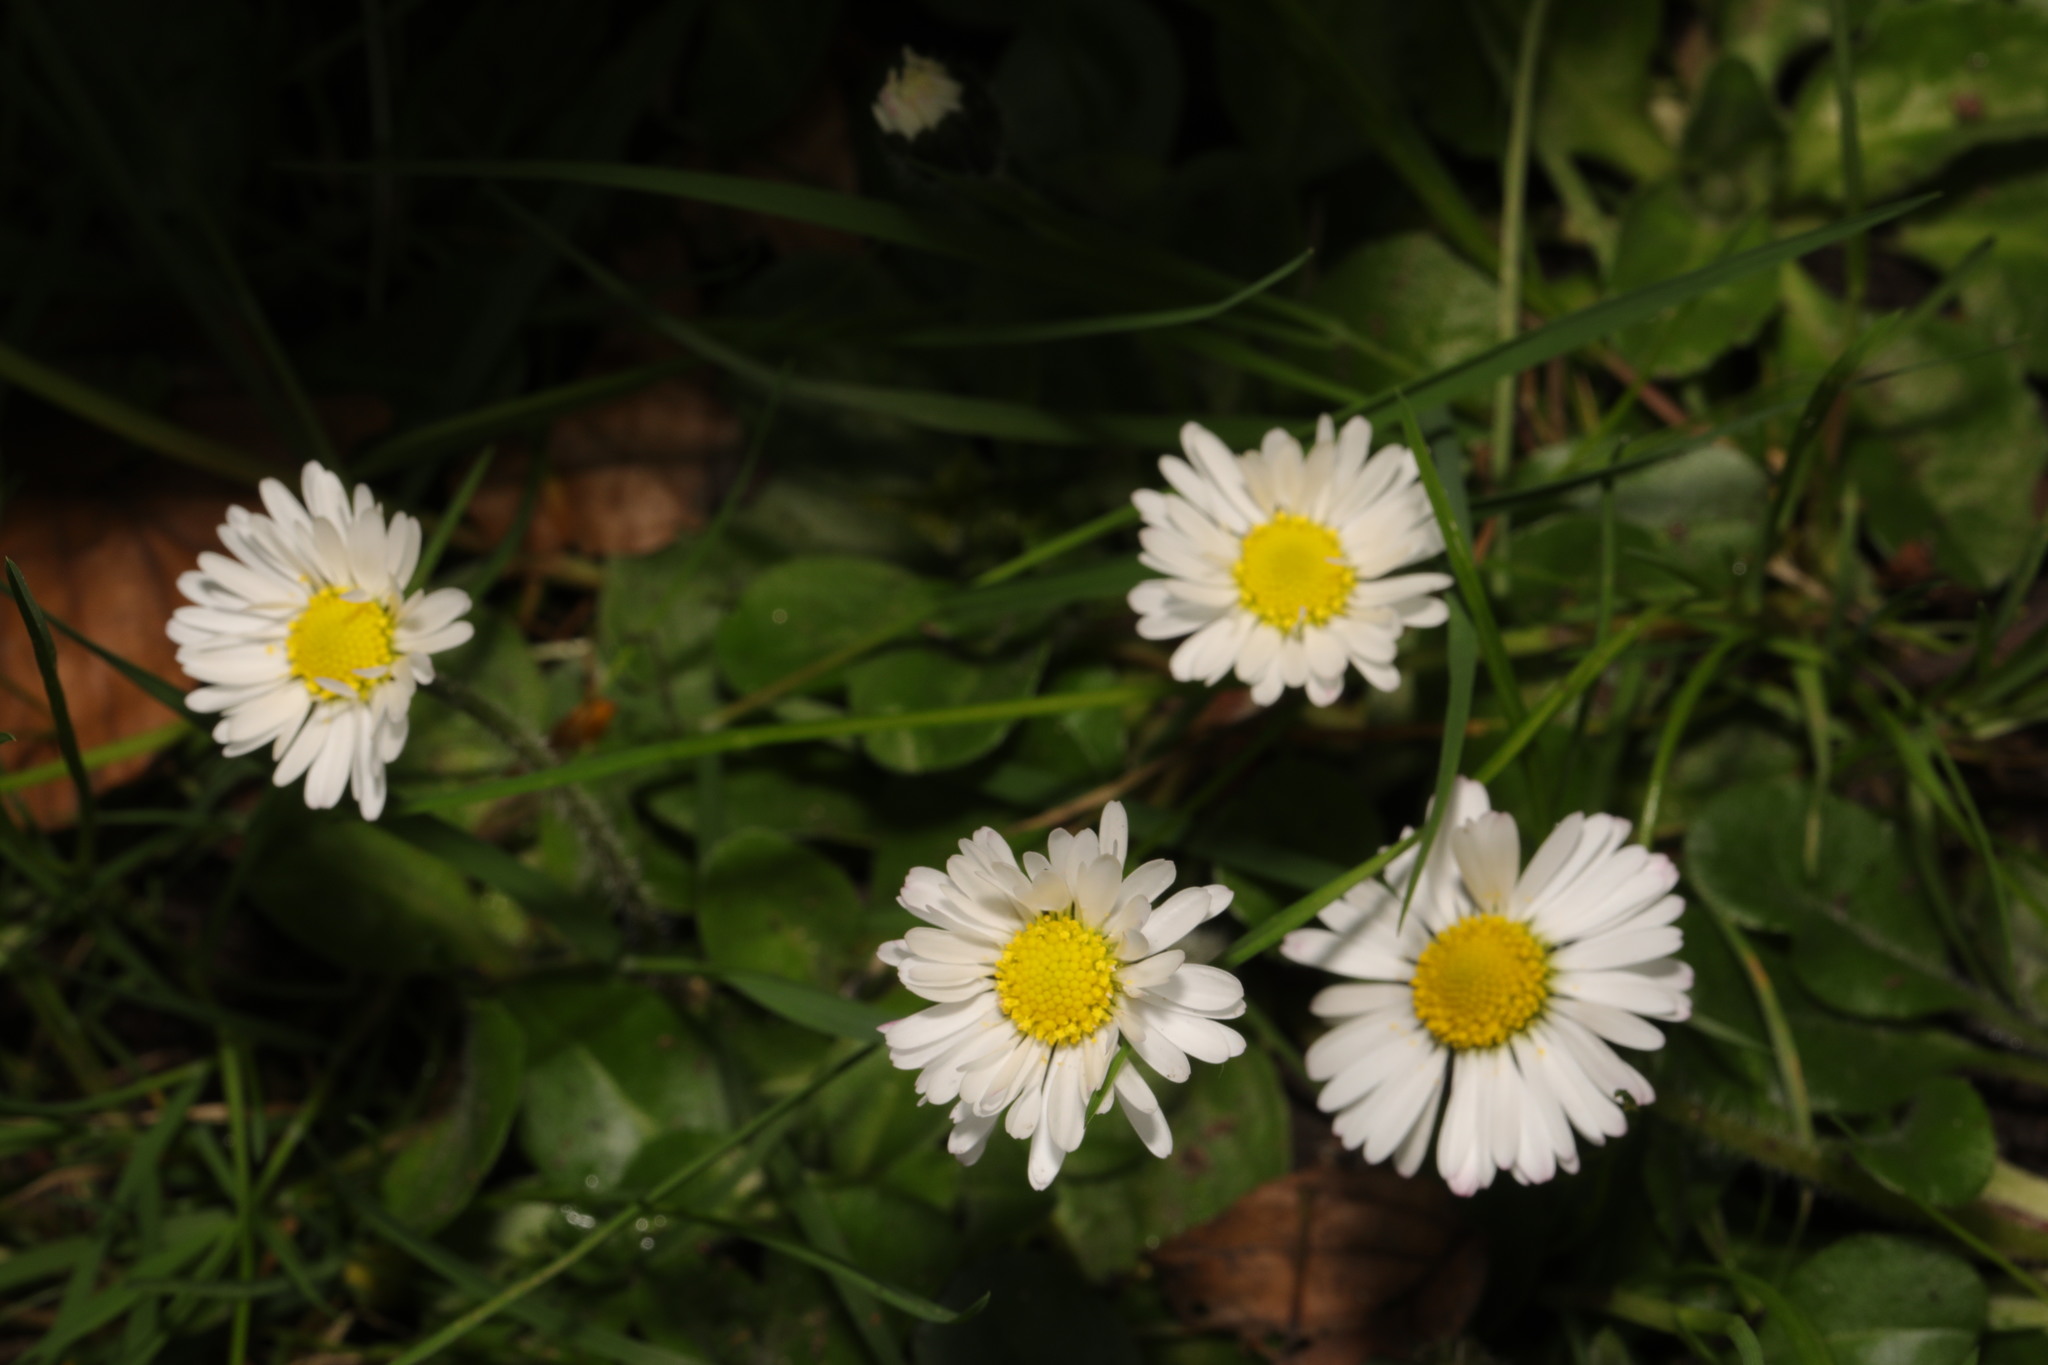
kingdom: Plantae
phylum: Tracheophyta
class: Magnoliopsida
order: Asterales
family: Asteraceae
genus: Bellis
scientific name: Bellis perennis
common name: Lawndaisy
